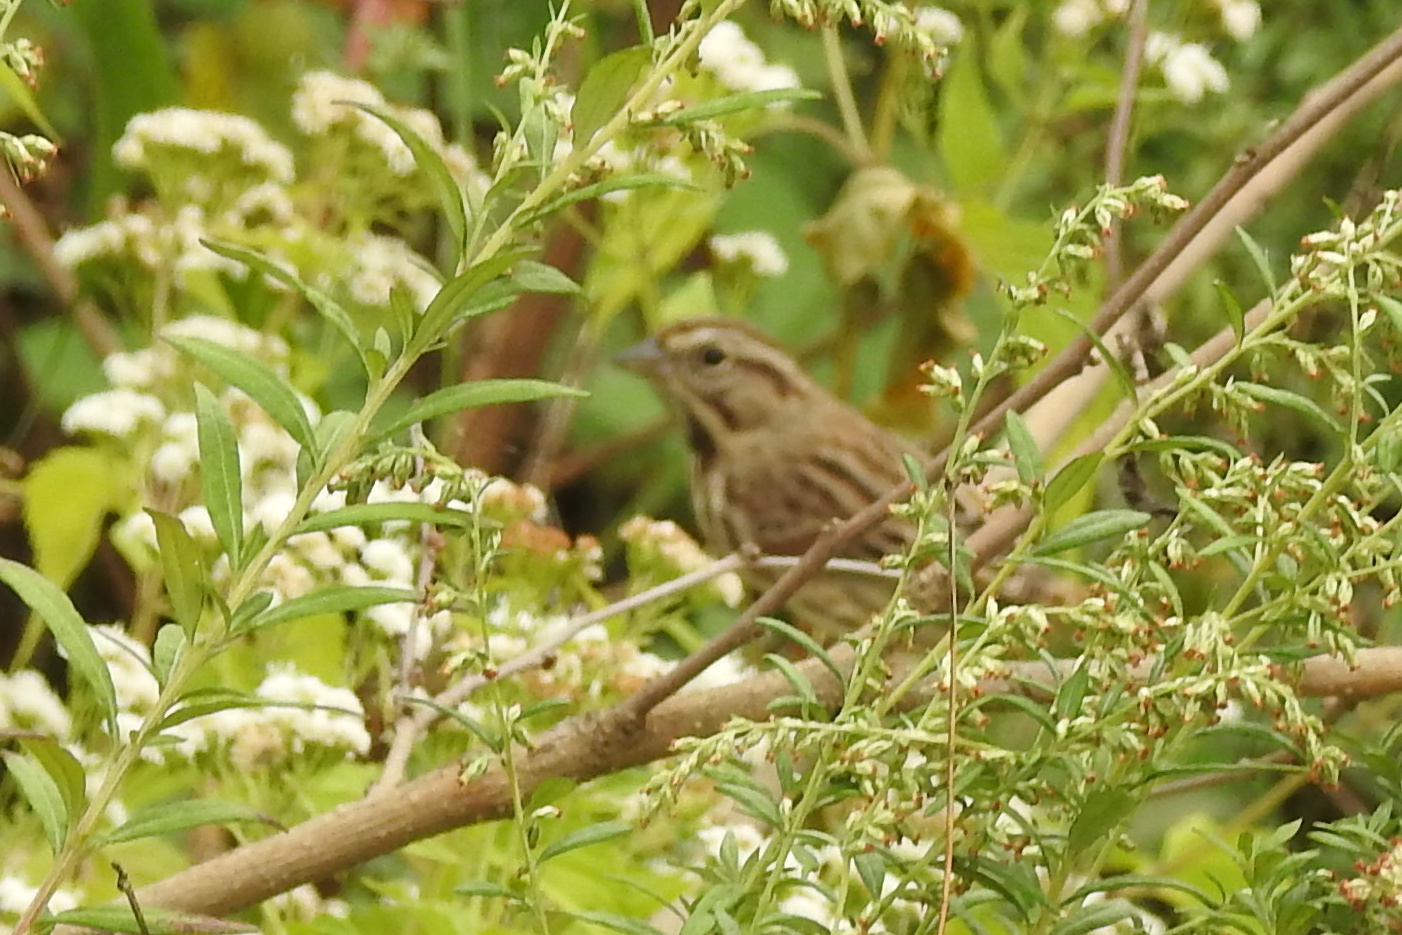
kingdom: Animalia
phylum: Chordata
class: Aves
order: Passeriformes
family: Passerellidae
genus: Melospiza
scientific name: Melospiza melodia
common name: Song sparrow
